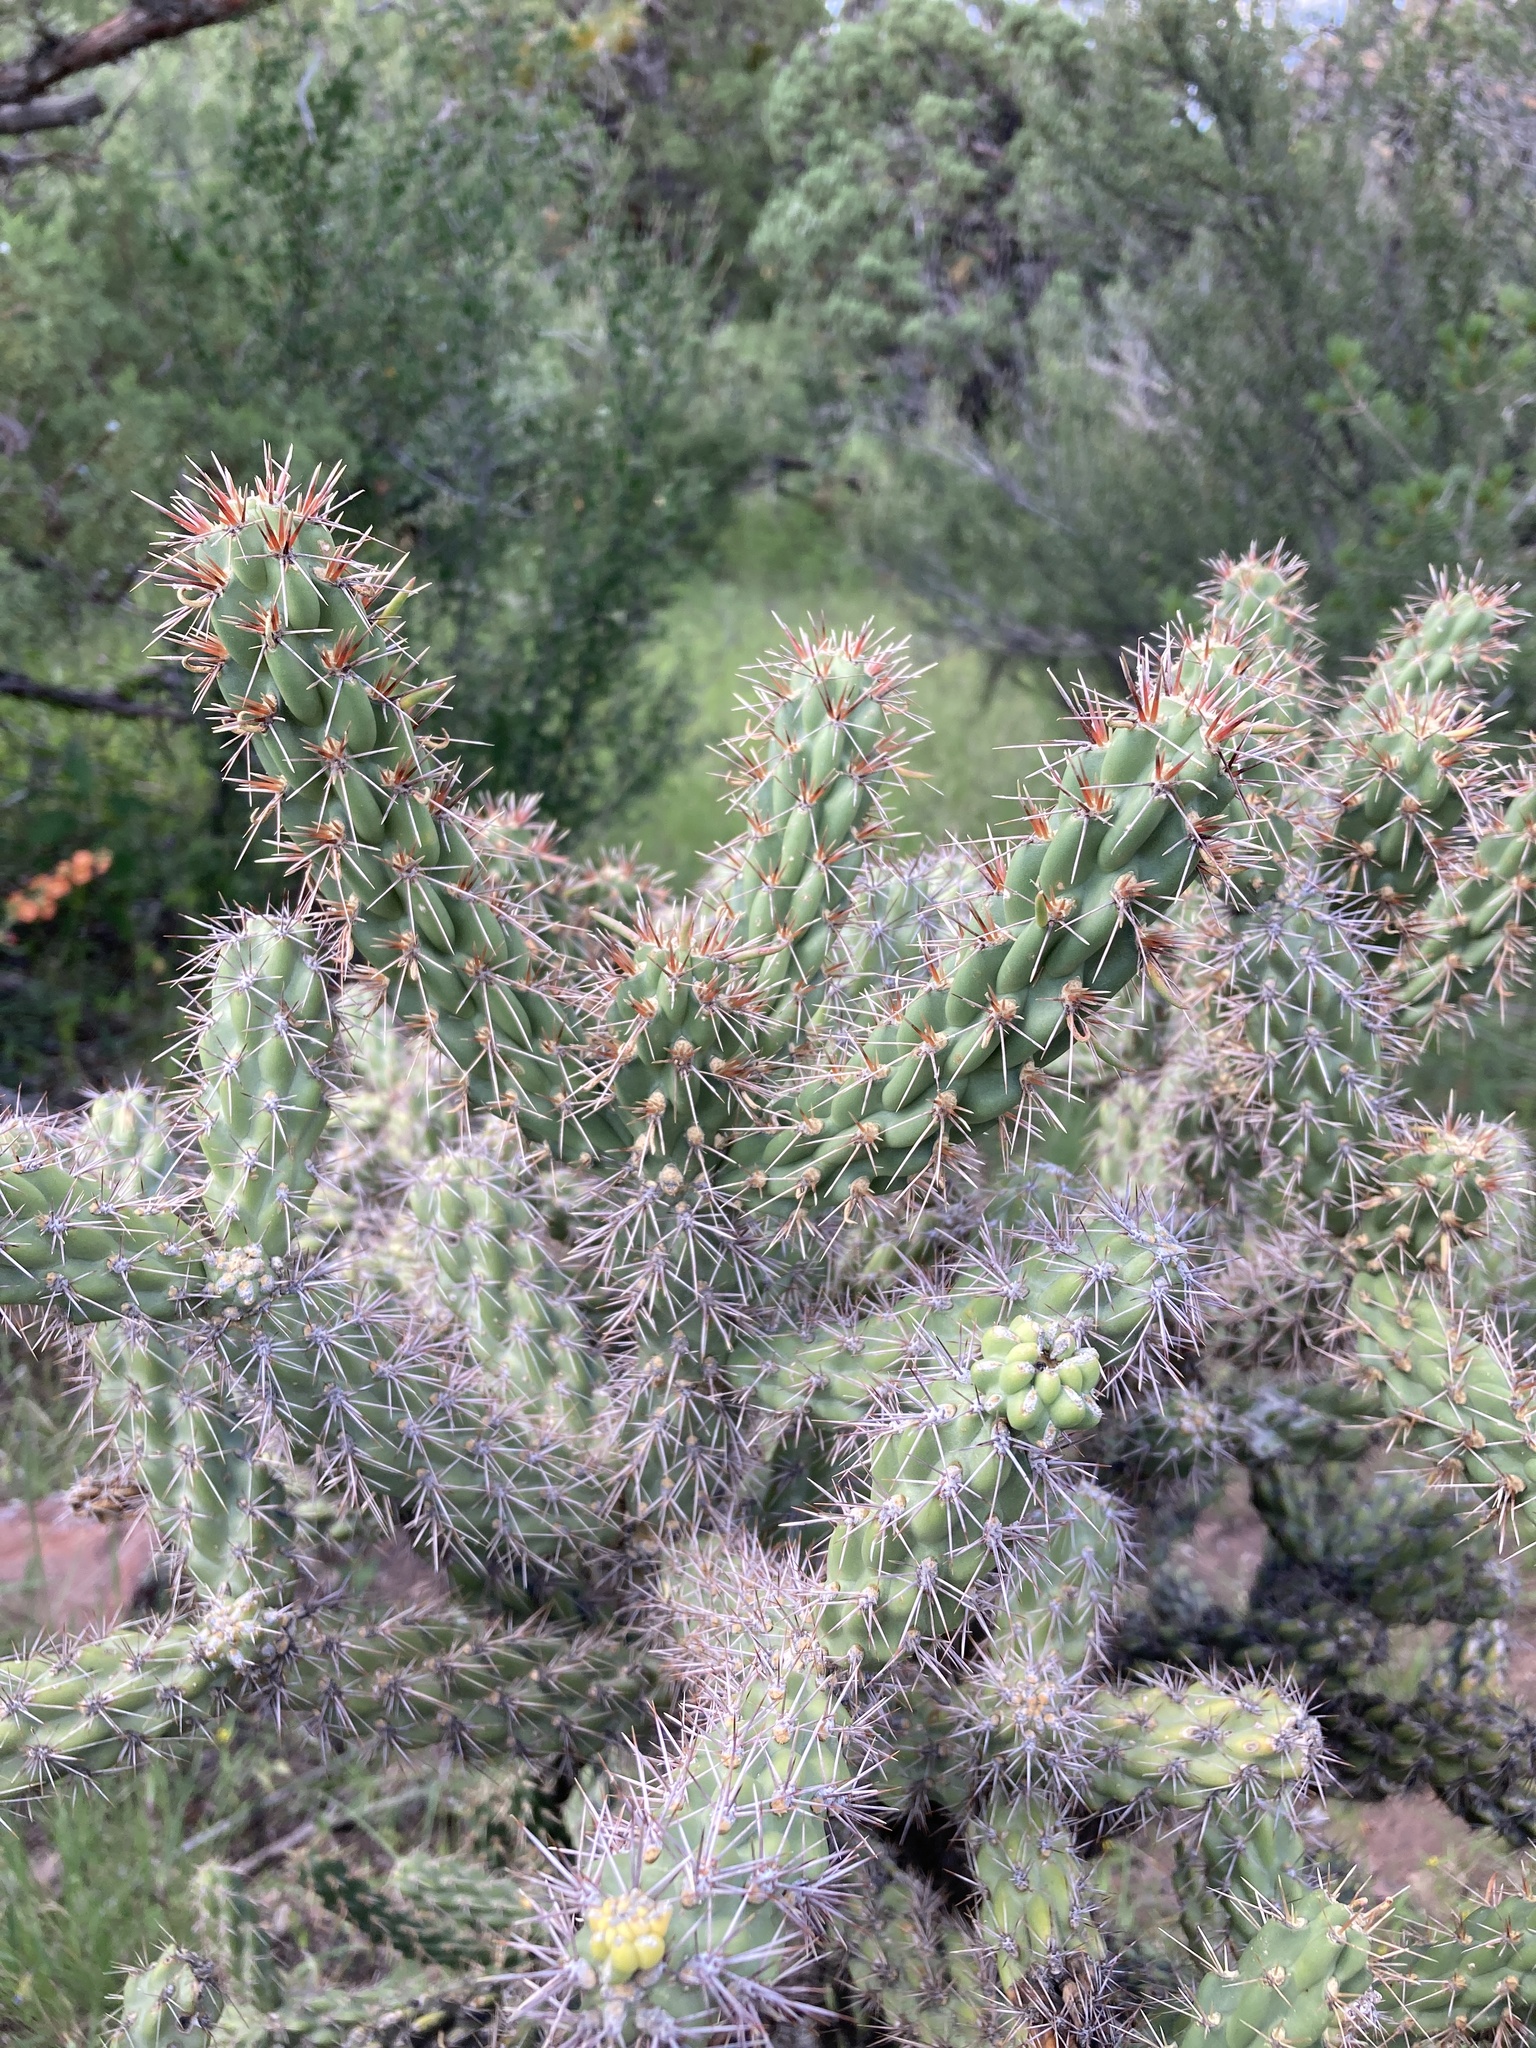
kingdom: Plantae
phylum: Tracheophyta
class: Magnoliopsida
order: Caryophyllales
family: Cactaceae
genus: Cylindropuntia
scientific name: Cylindropuntia imbricata
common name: Candelabrum cactus
